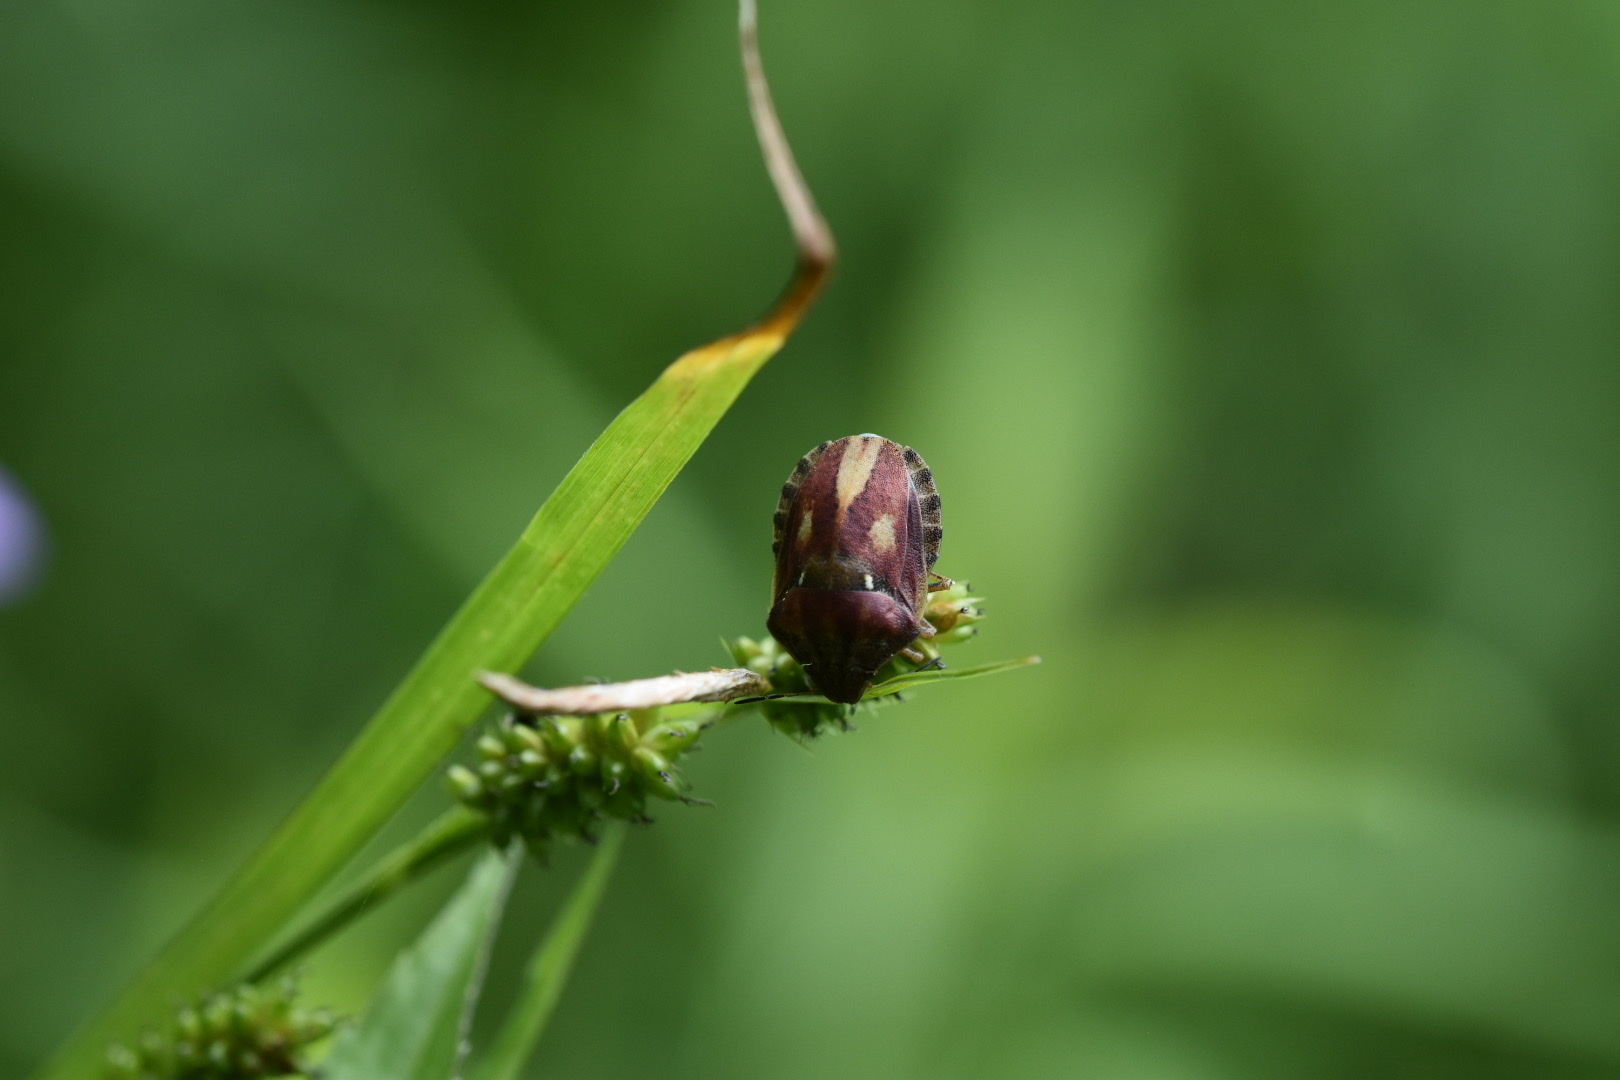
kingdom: Animalia
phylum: Arthropoda
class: Insecta
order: Hemiptera
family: Scutelleridae
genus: Eurygaster
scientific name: Eurygaster testudinaria
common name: Tortoise bug
